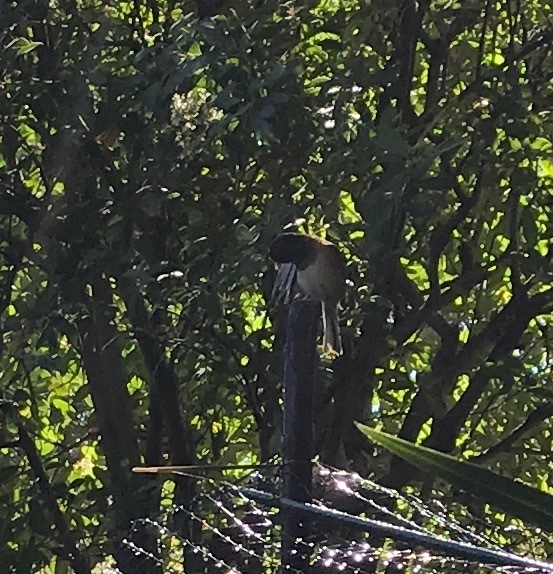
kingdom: Animalia
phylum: Chordata
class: Aves
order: Passeriformes
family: Passerellidae
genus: Junco
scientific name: Junco hyemalis
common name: Dark-eyed junco
